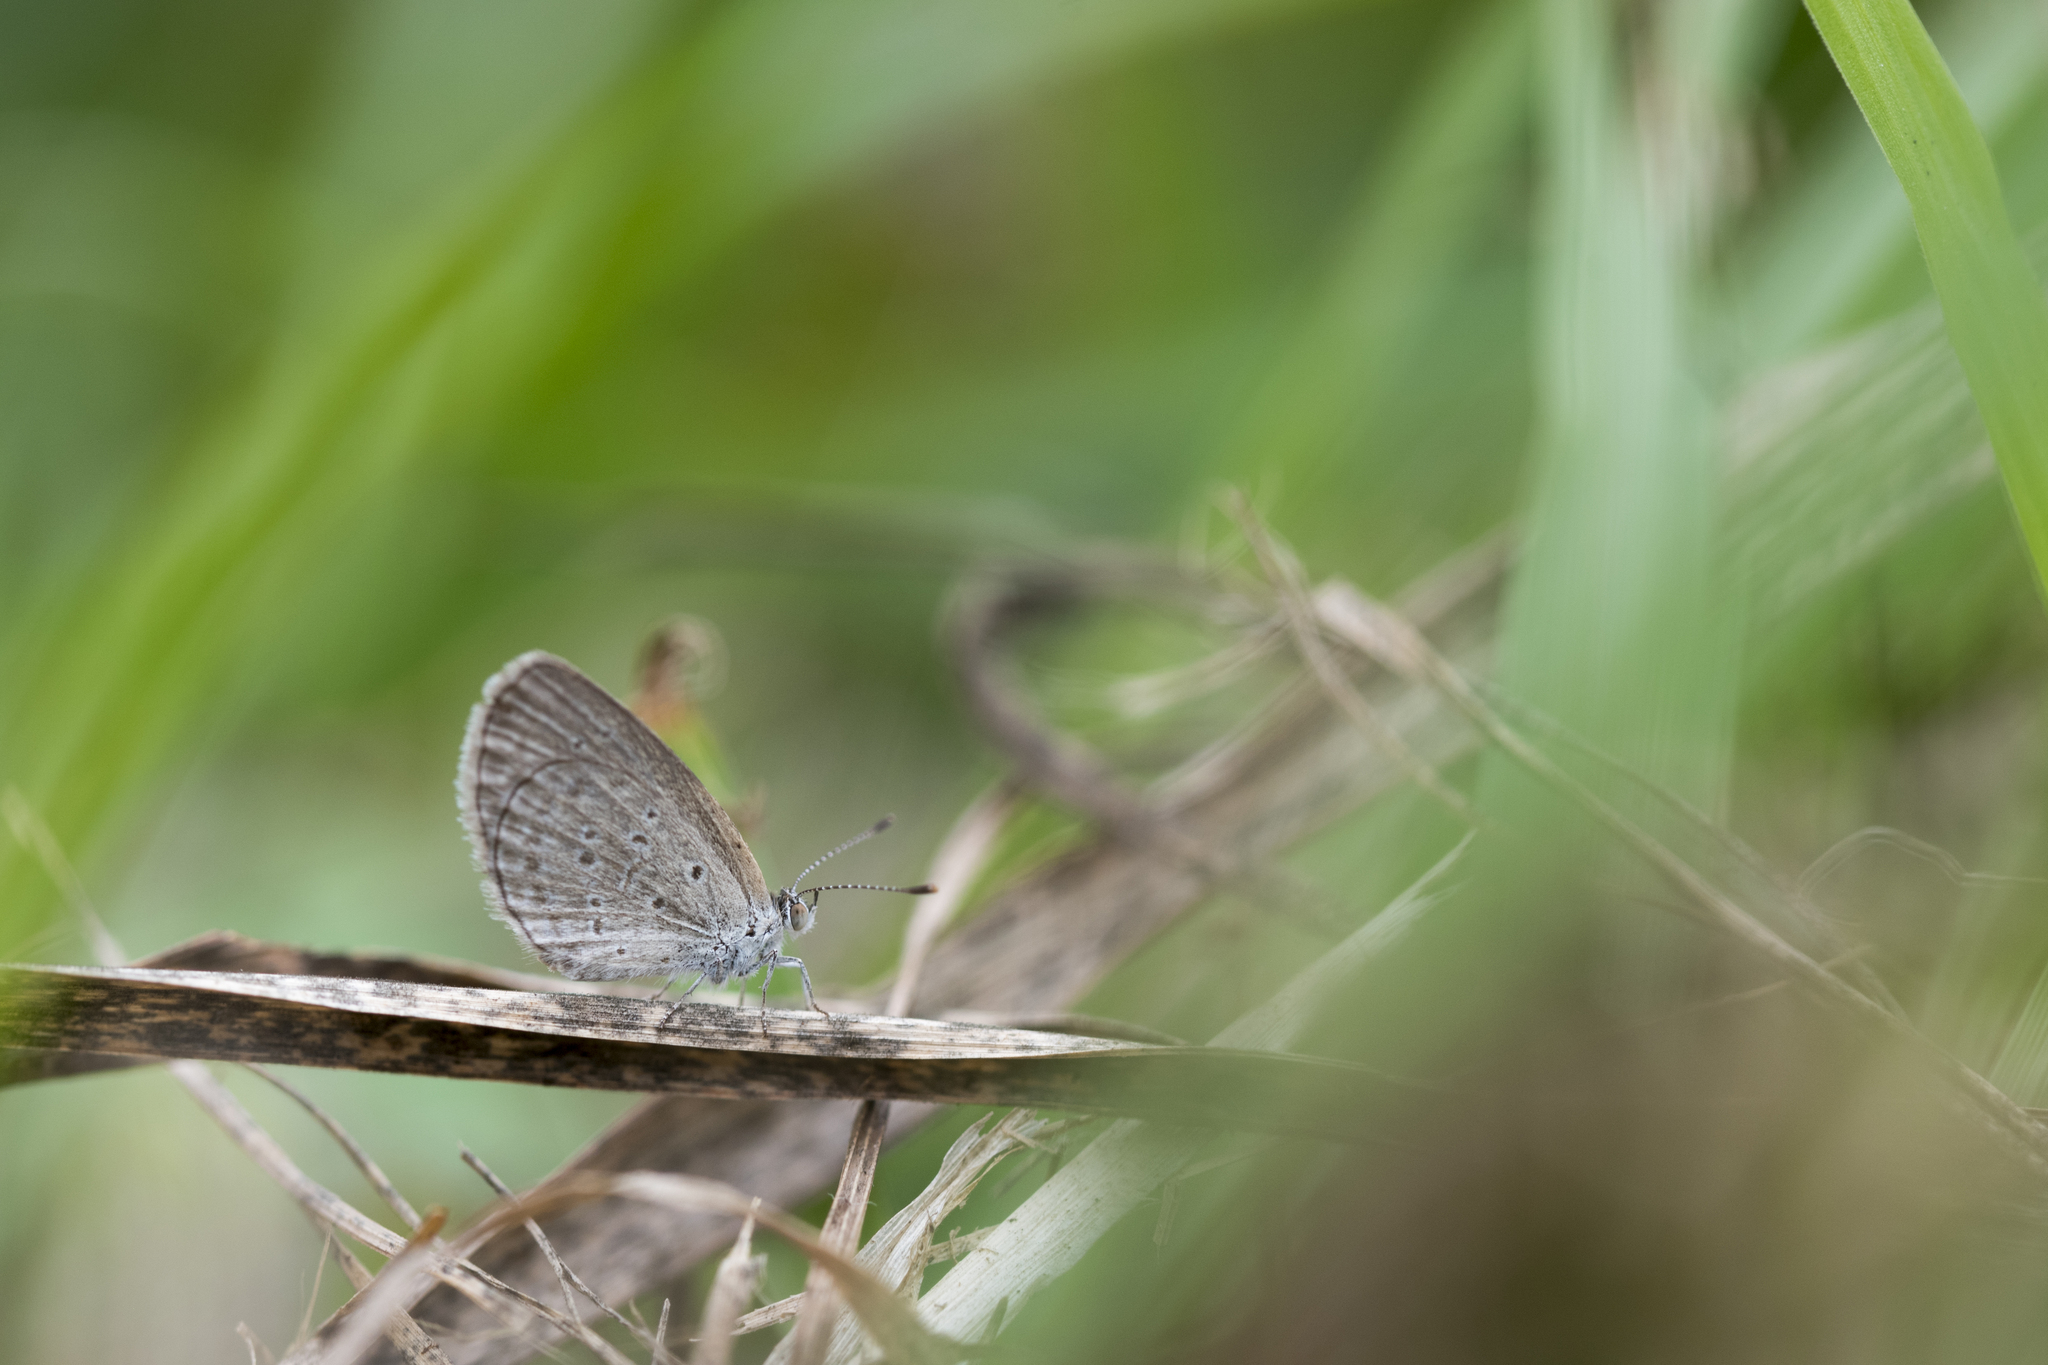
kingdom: Animalia
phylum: Arthropoda
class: Insecta
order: Lepidoptera
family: Lycaenidae
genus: Zizina
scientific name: Zizina otis
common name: Lesser grass blue
